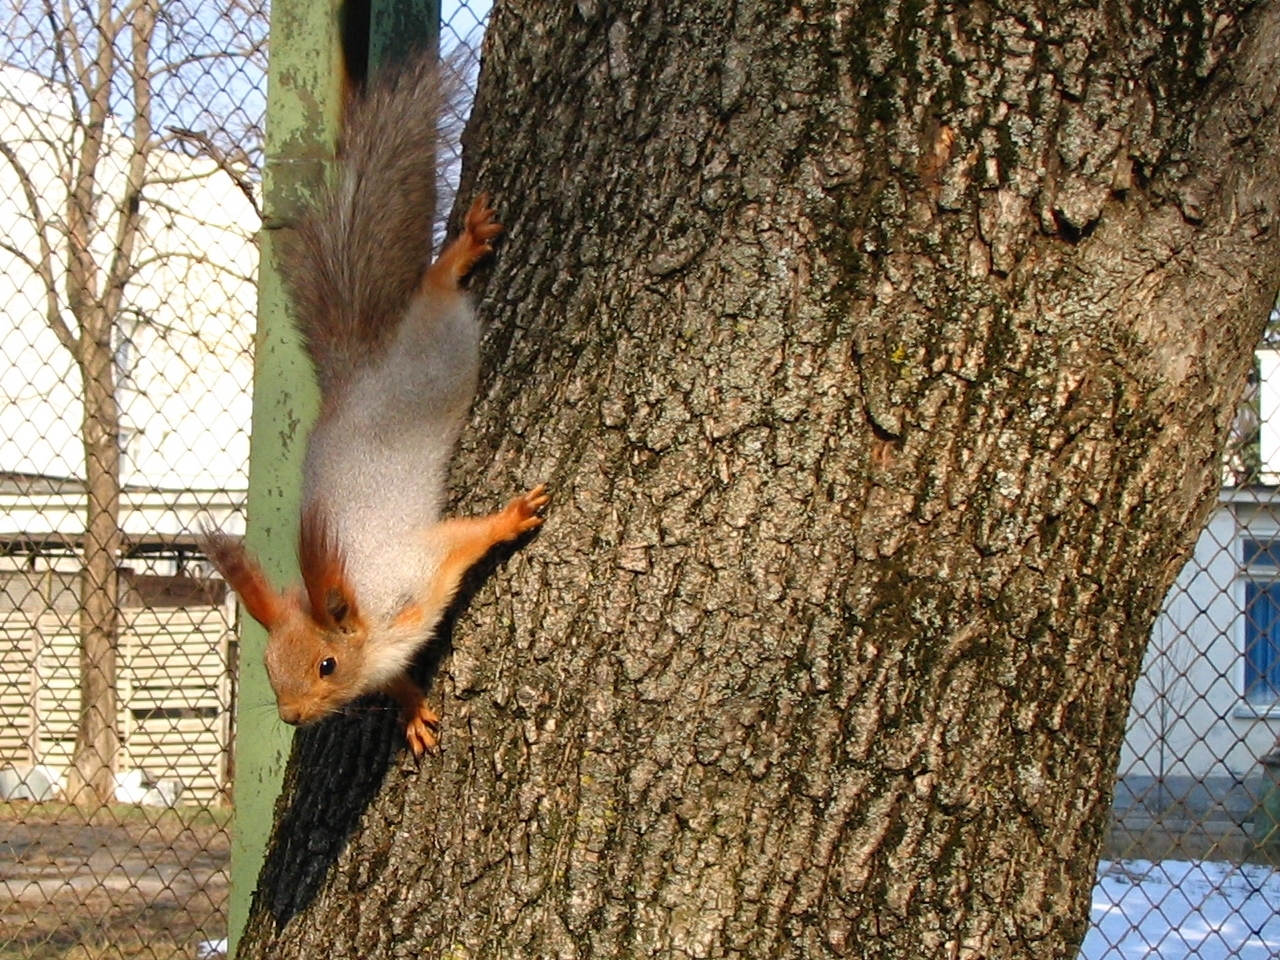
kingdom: Animalia
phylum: Chordata
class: Mammalia
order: Rodentia
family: Sciuridae
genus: Sciurus
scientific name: Sciurus vulgaris
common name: Eurasian red squirrel
